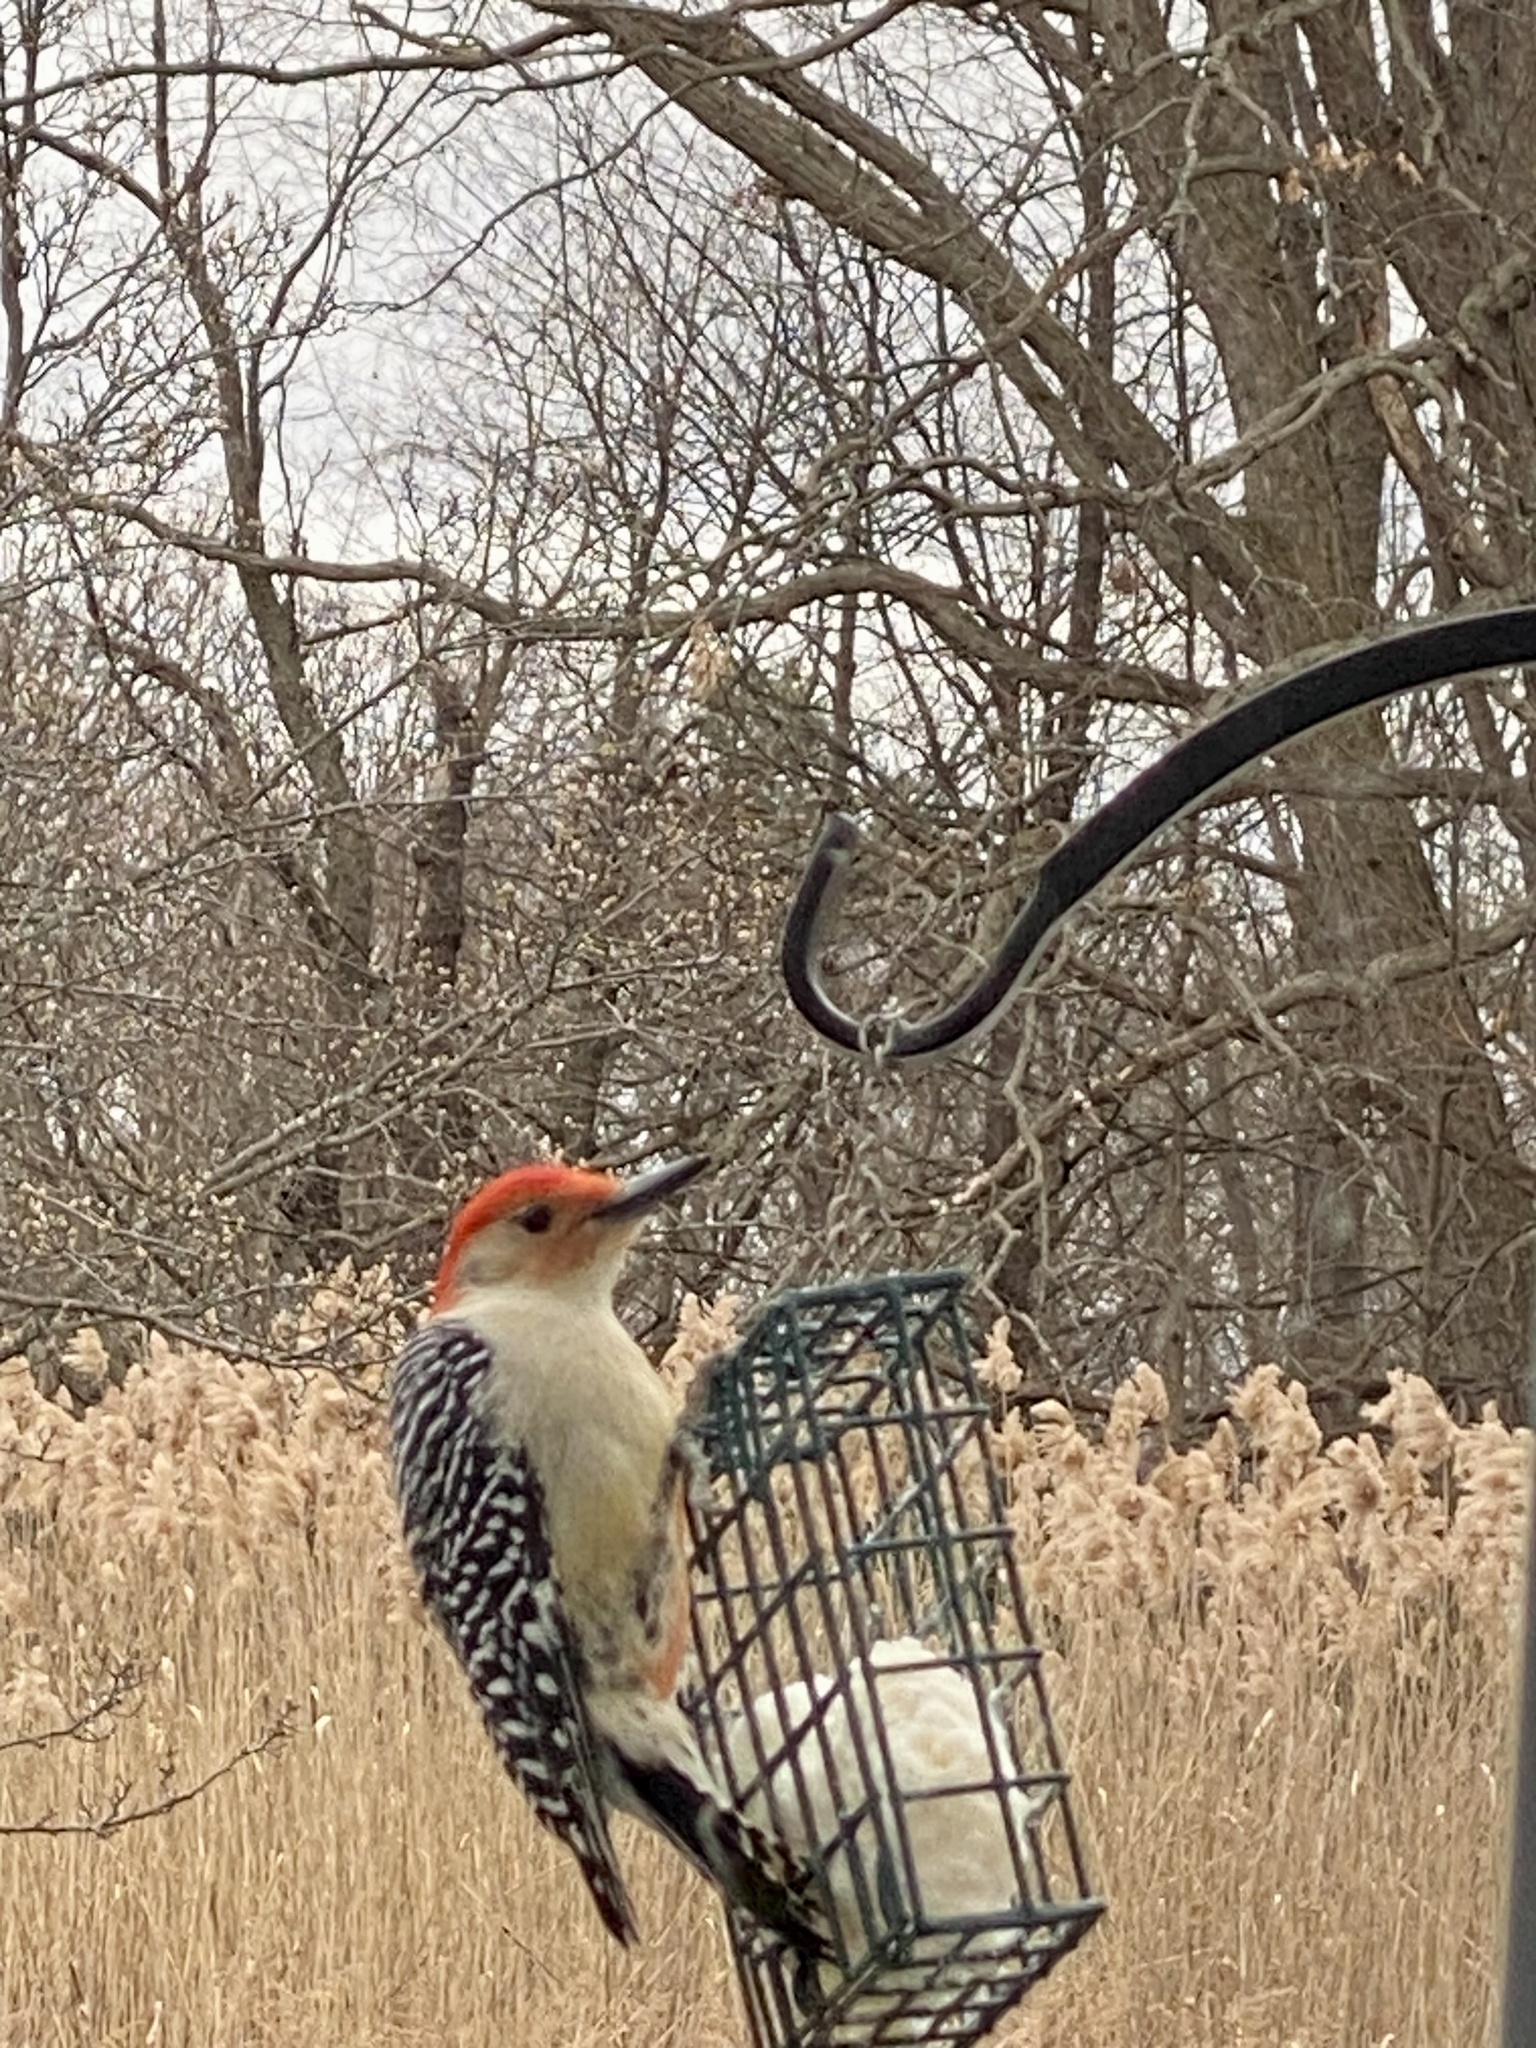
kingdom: Animalia
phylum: Chordata
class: Aves
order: Piciformes
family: Picidae
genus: Melanerpes
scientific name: Melanerpes carolinus
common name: Red-bellied woodpecker
